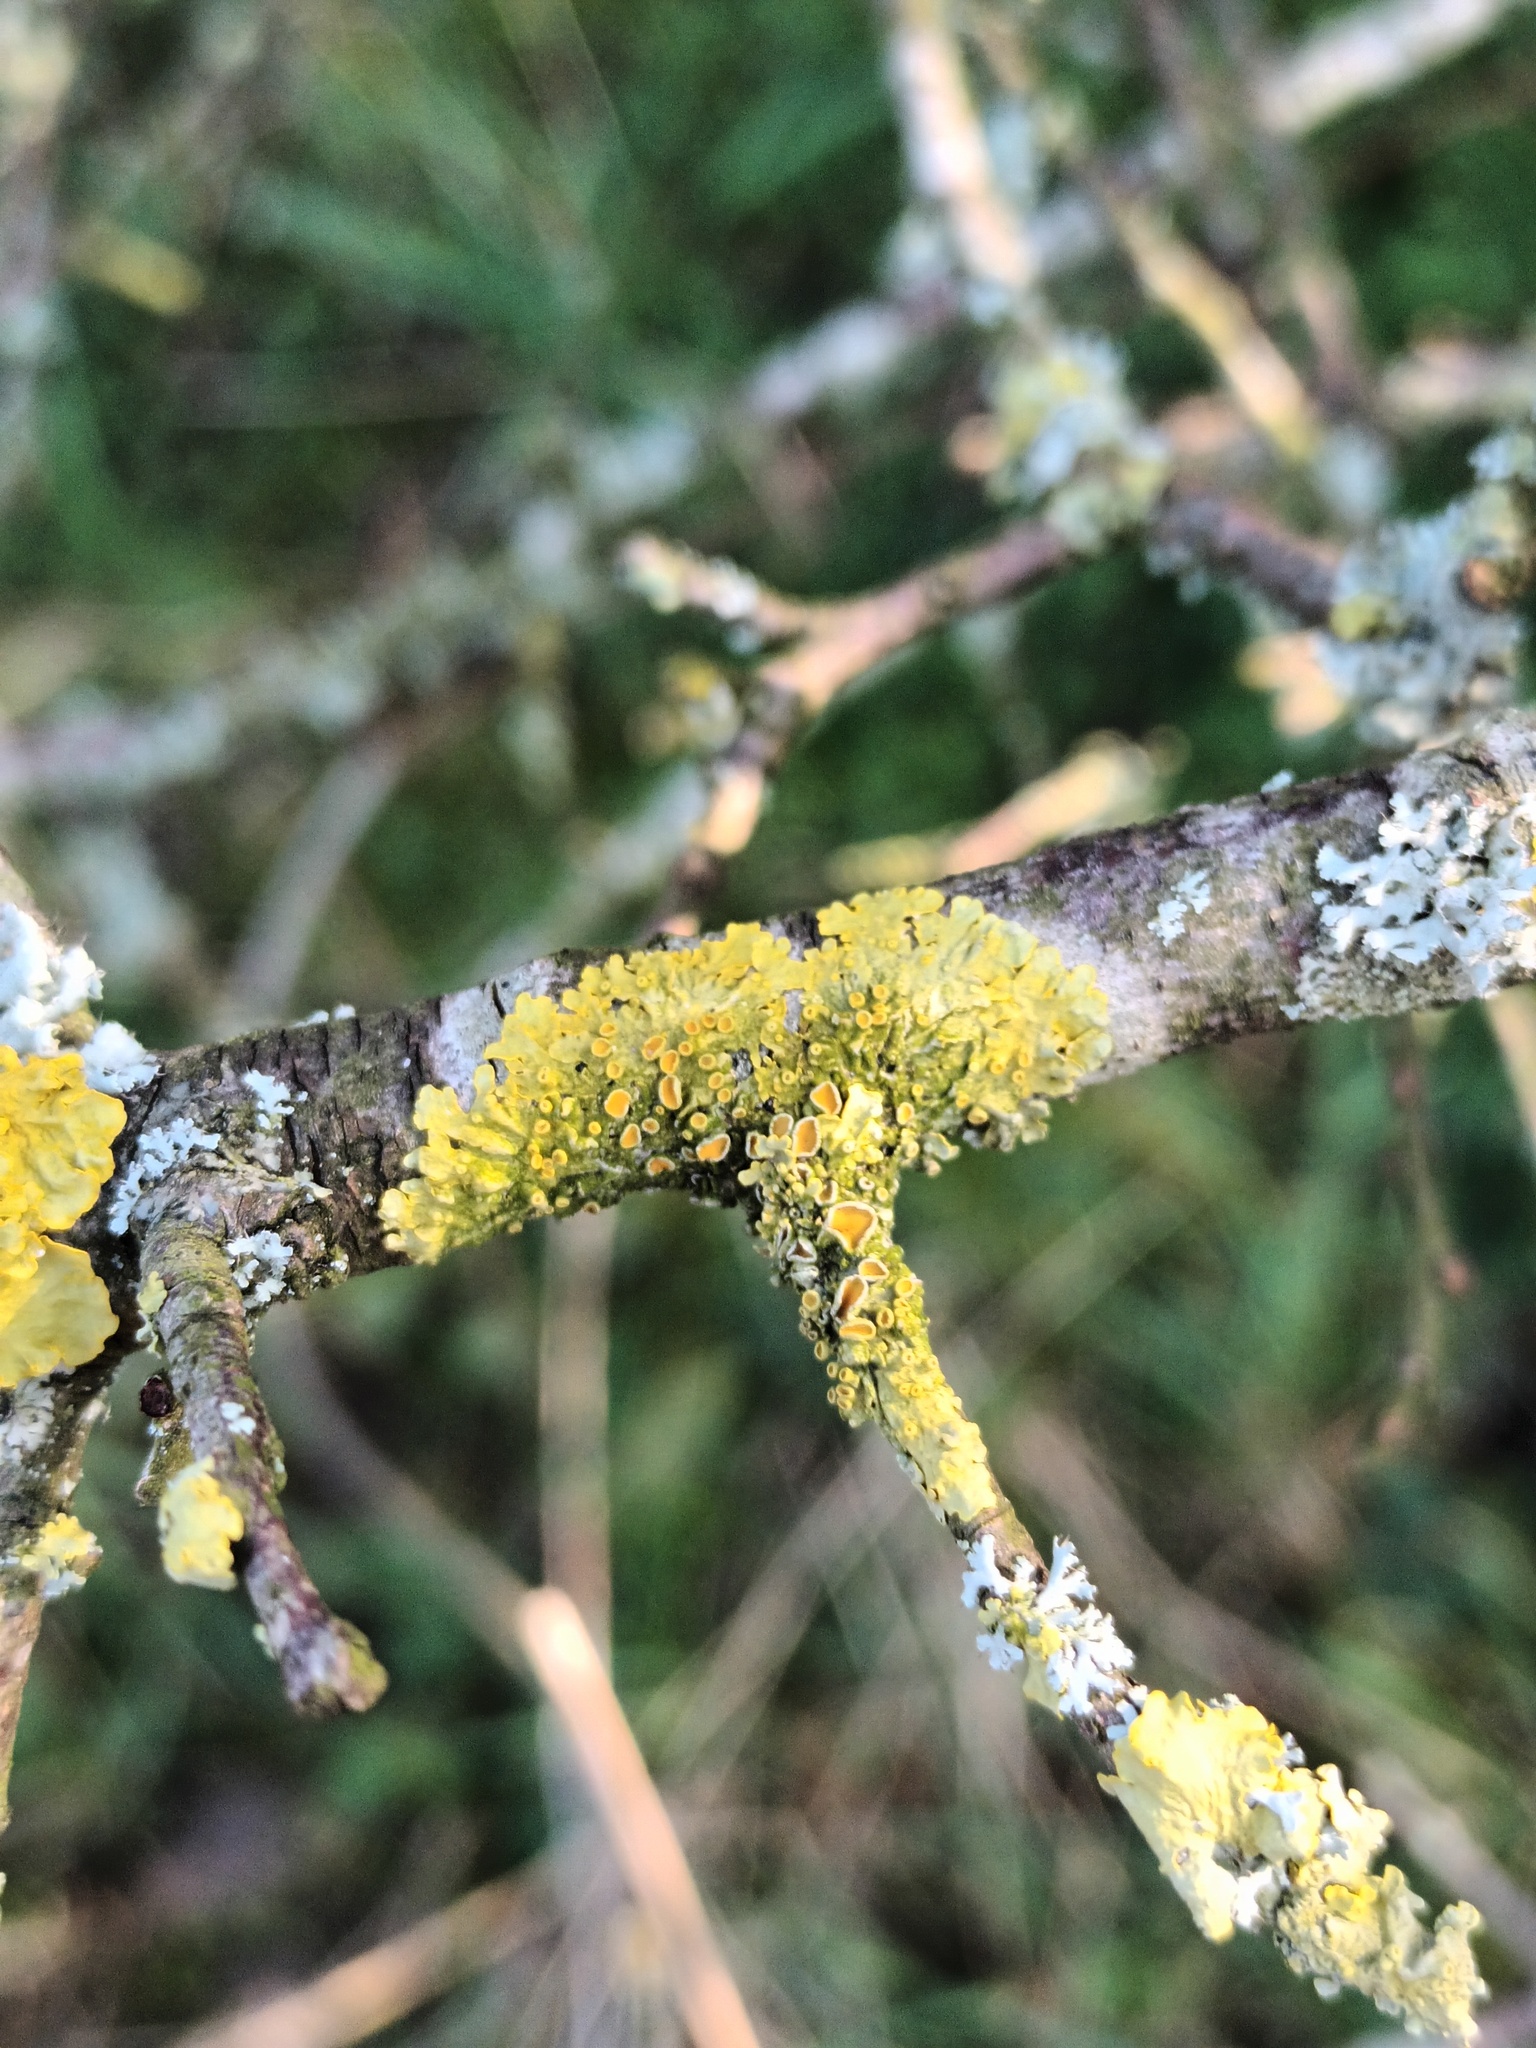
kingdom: Fungi
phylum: Ascomycota
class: Lecanoromycetes
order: Teloschistales
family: Teloschistaceae
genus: Xanthoria
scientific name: Xanthoria parietina
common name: Common orange lichen
